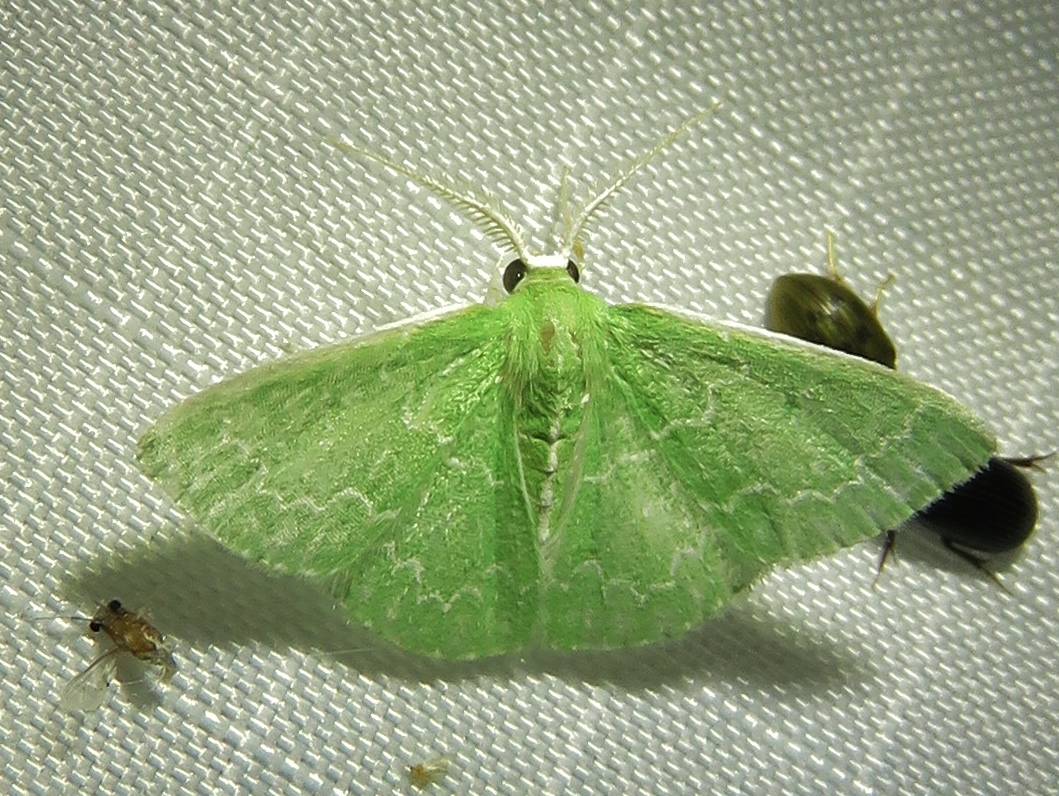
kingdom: Animalia
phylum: Arthropoda
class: Insecta
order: Lepidoptera
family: Geometridae
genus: Synchlora
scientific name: Synchlora frondaria
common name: Southern emerald
